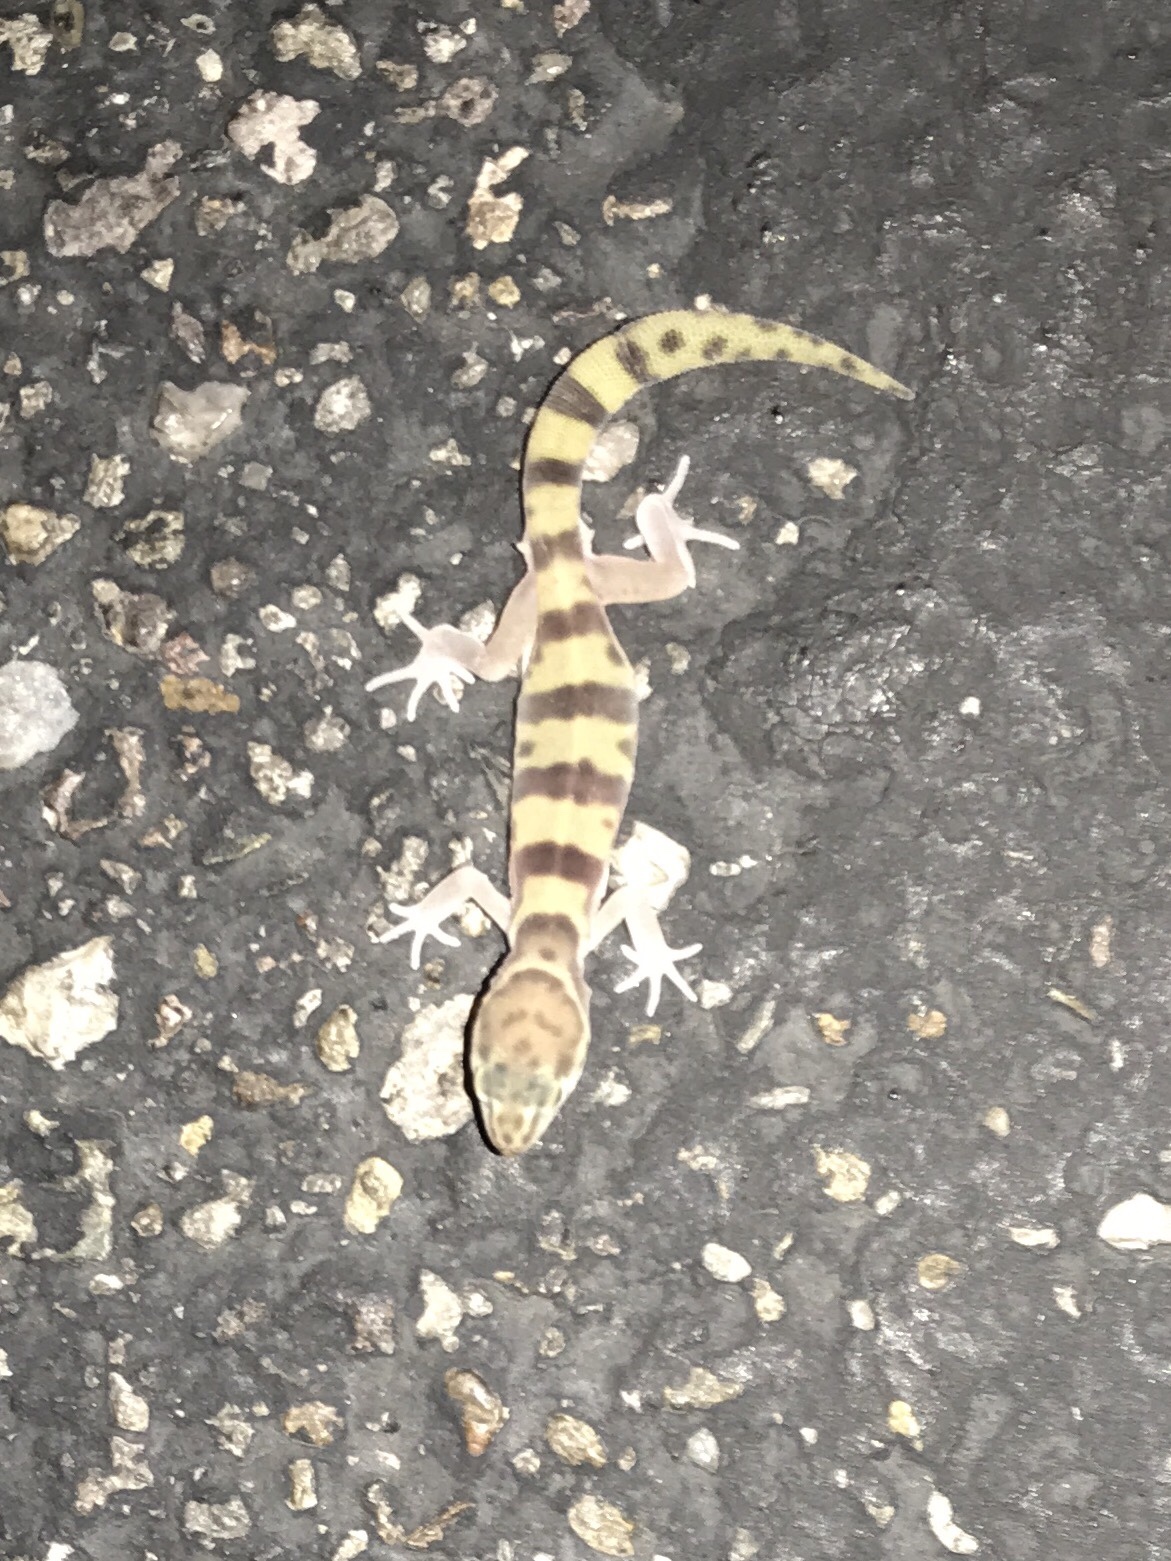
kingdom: Animalia
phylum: Chordata
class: Squamata
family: Eublepharidae
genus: Coleonyx
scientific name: Coleonyx variegatus
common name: Western banded gecko
